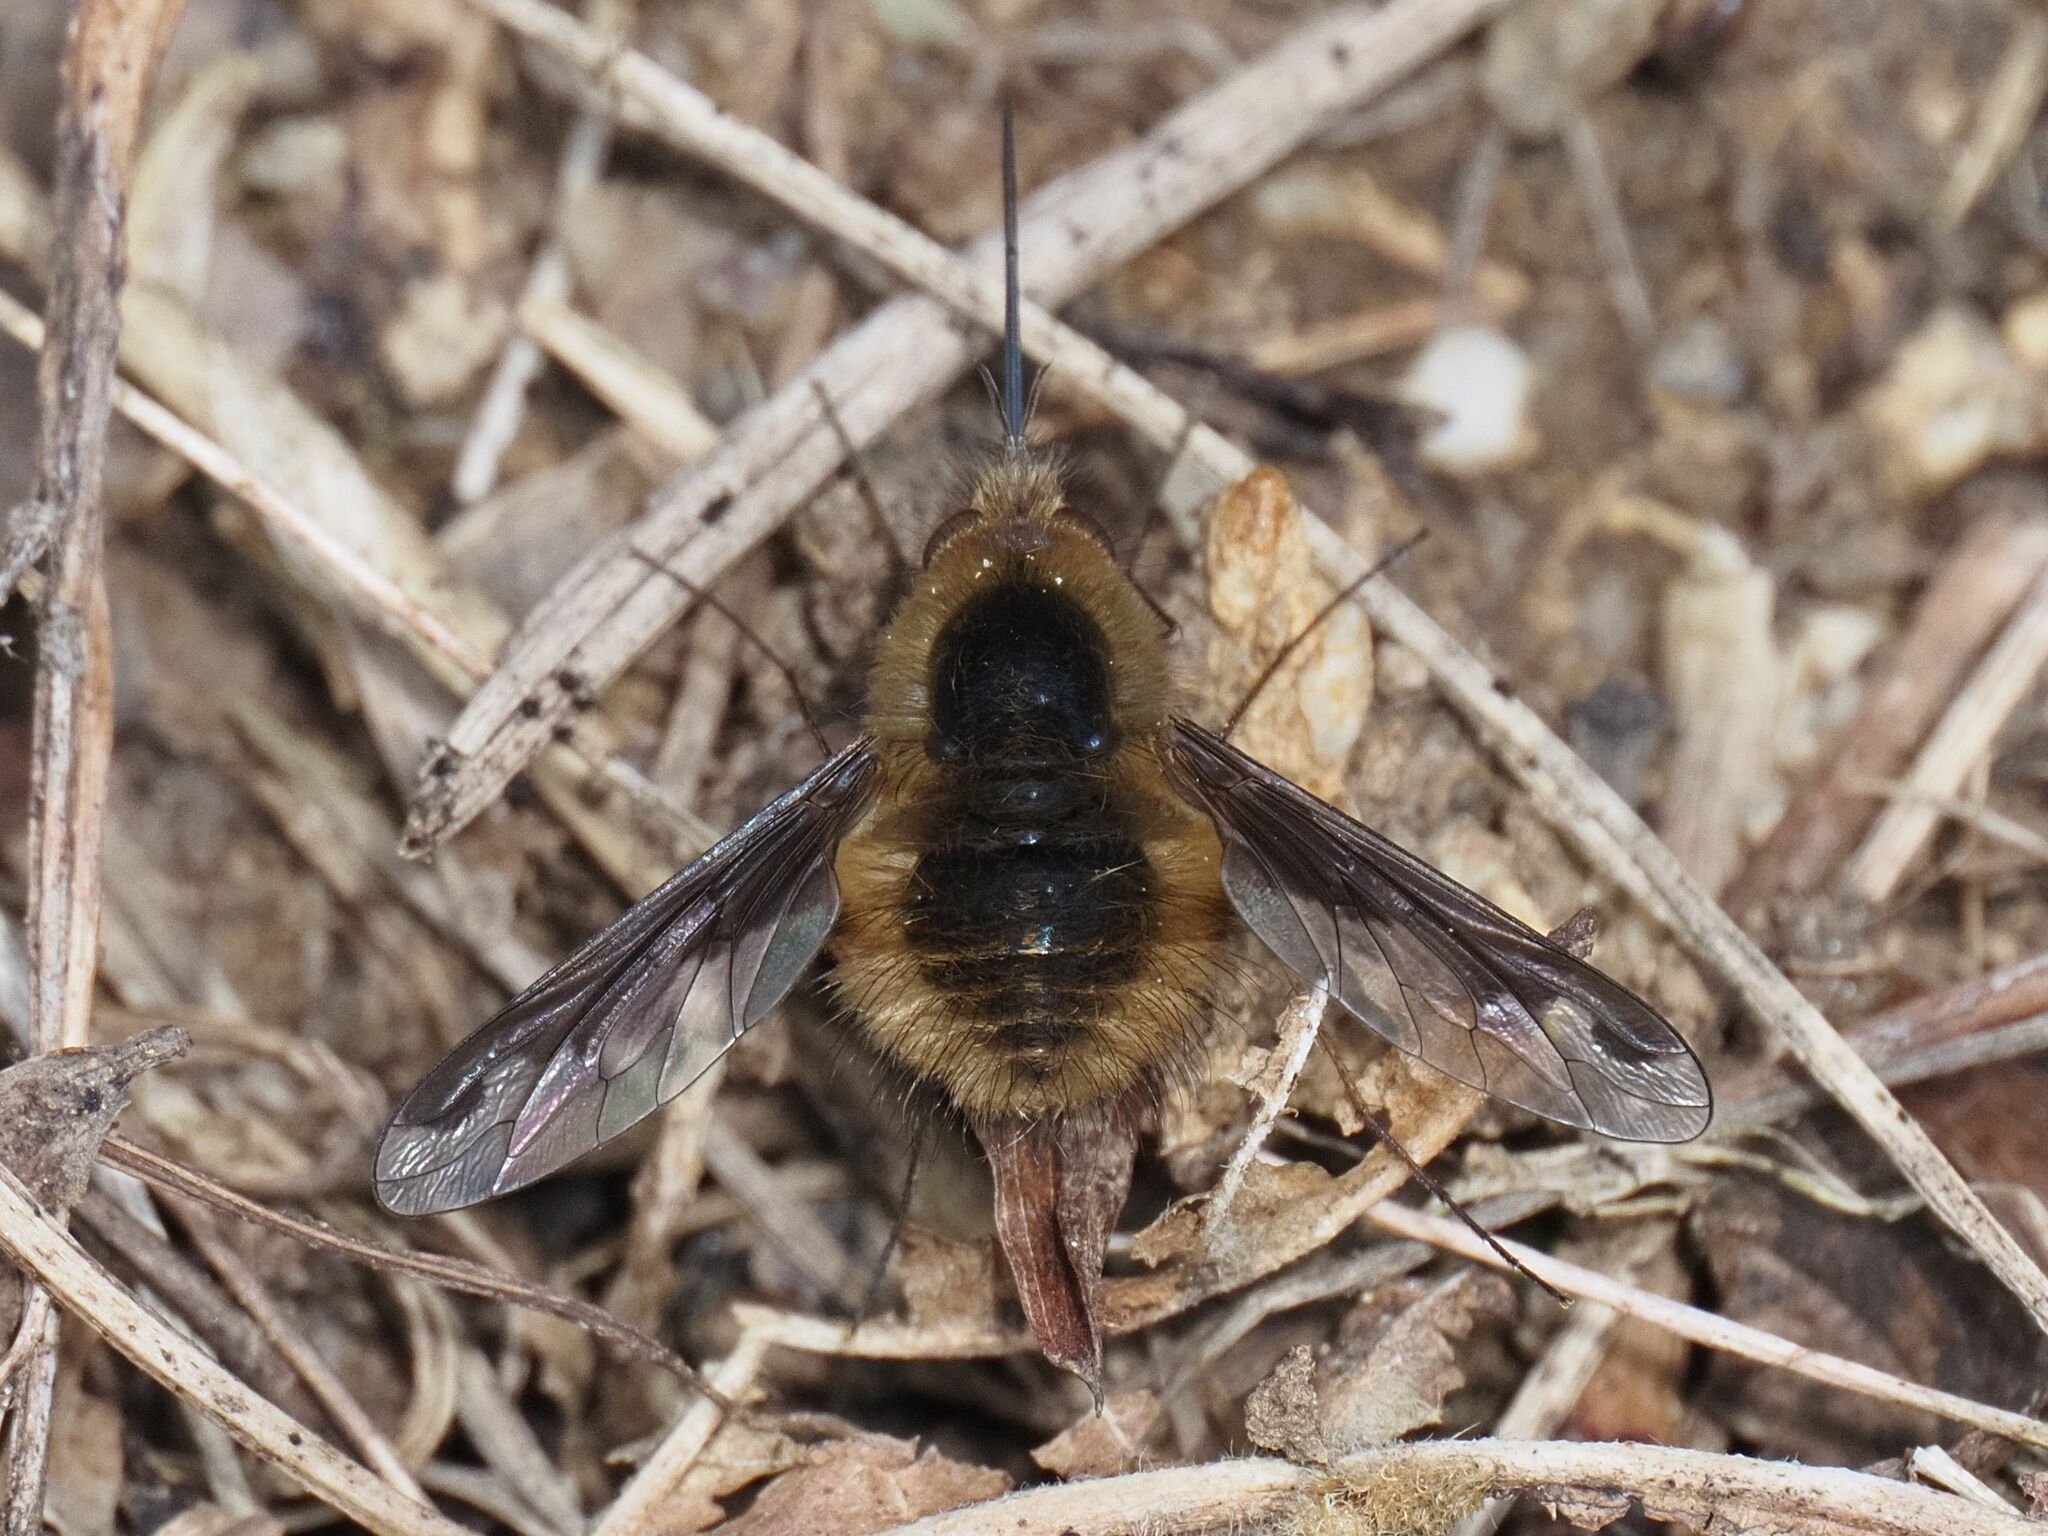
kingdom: Animalia
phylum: Arthropoda
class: Insecta
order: Diptera
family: Bombyliidae
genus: Bombylius
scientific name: Bombylius major
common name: Bee fly
